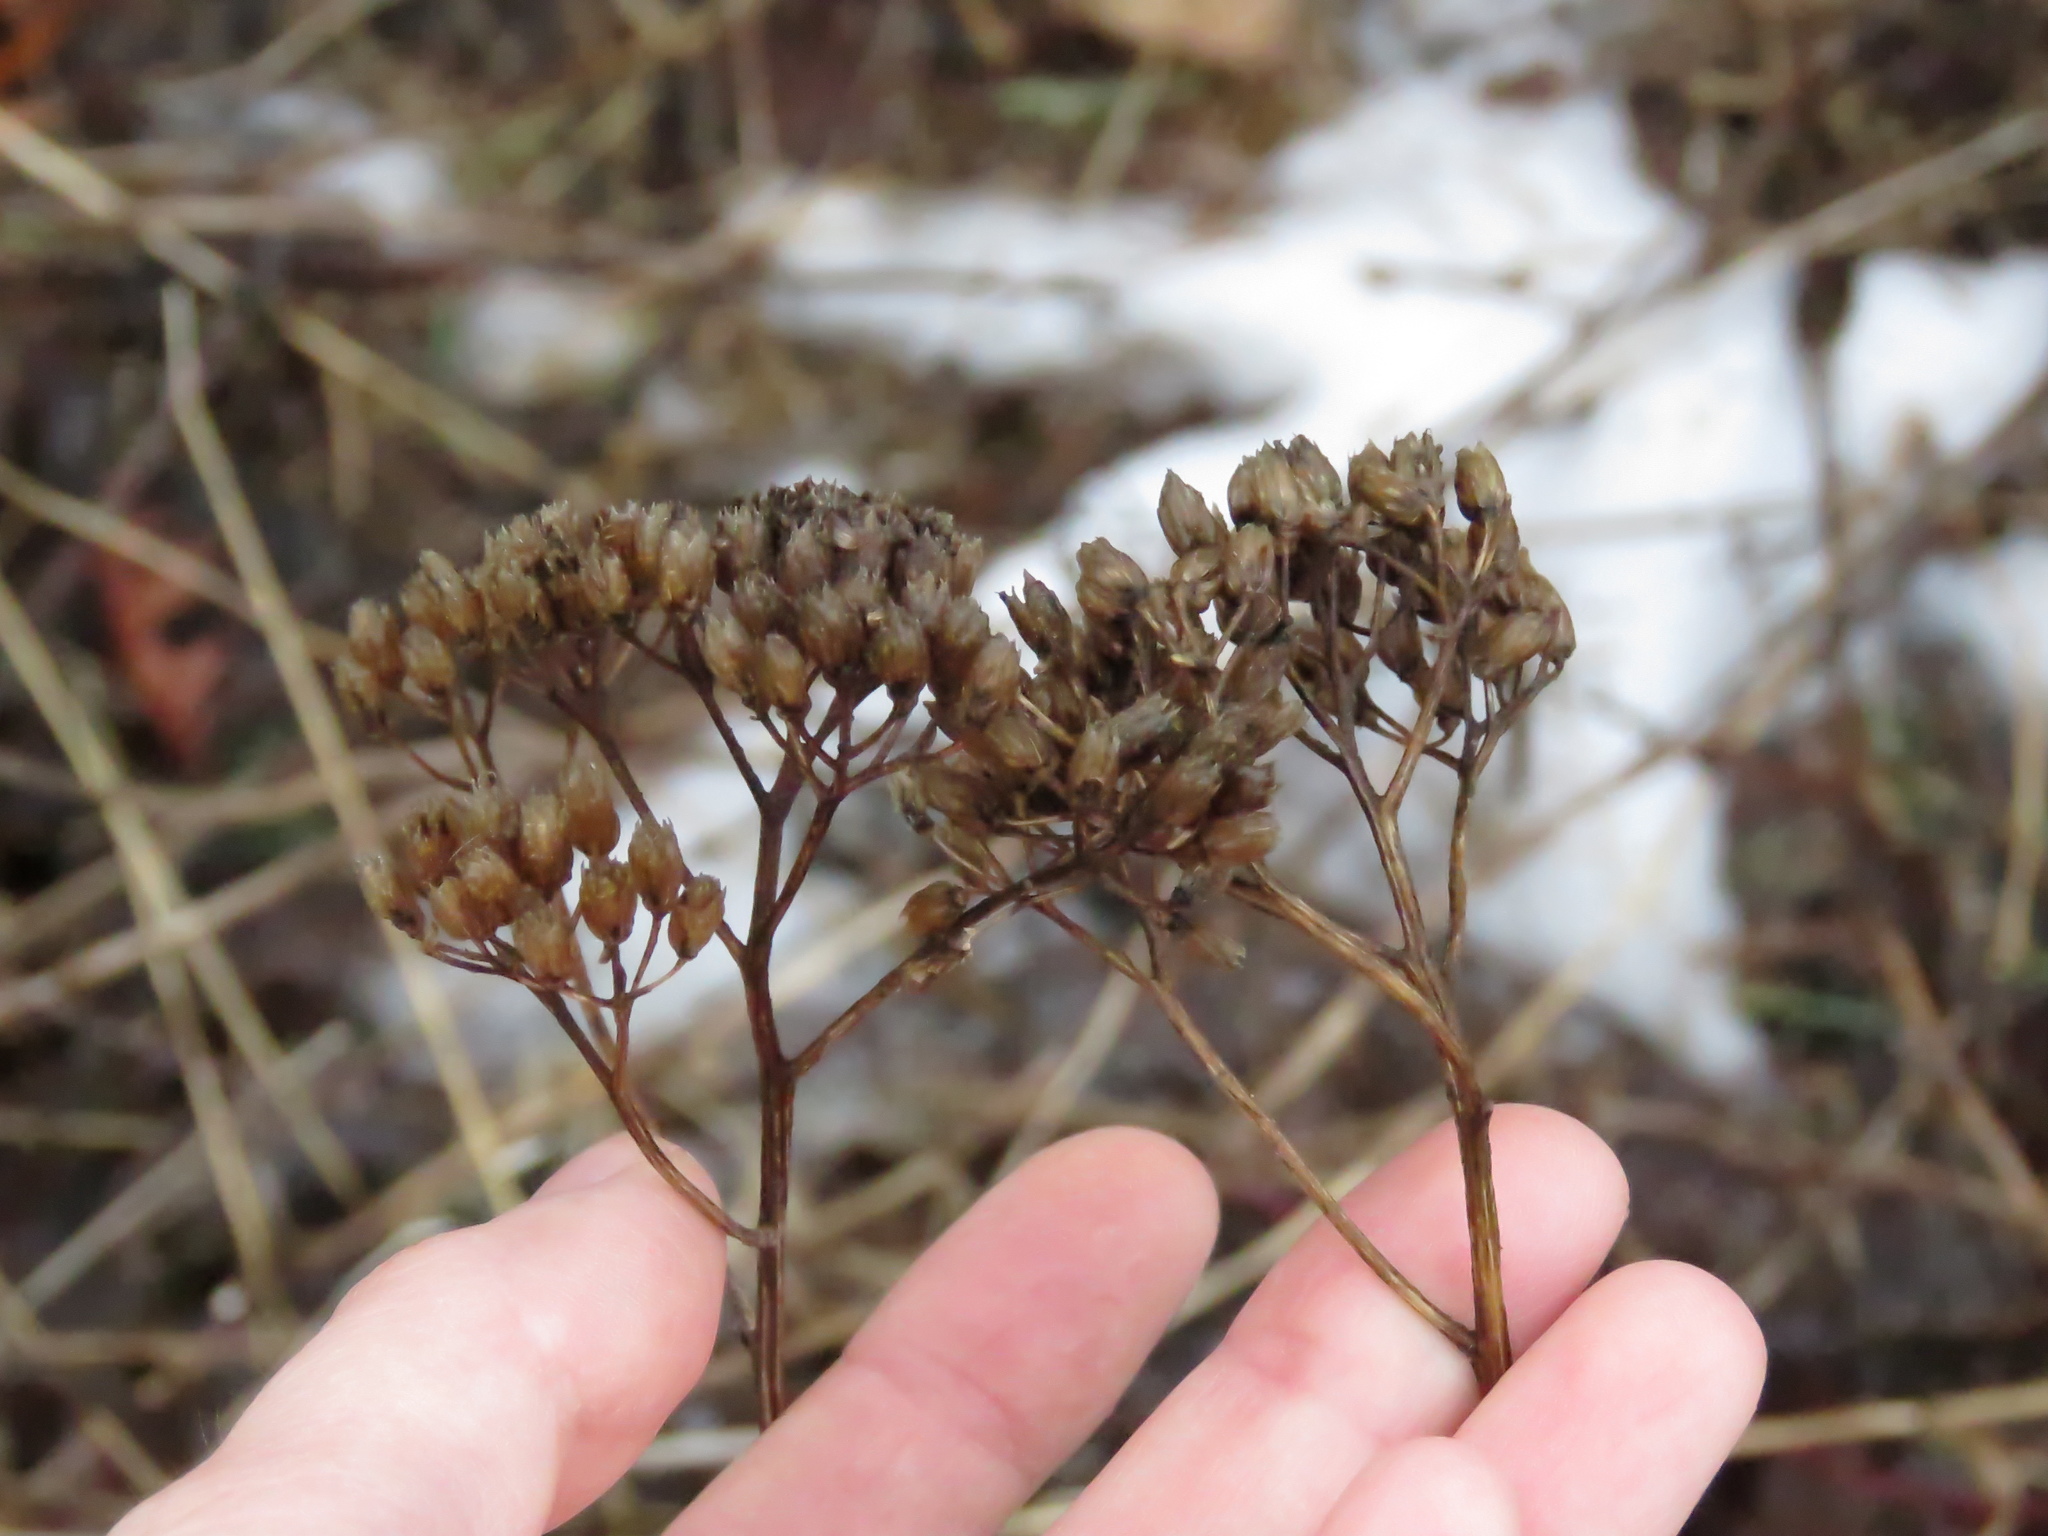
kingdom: Plantae
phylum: Tracheophyta
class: Magnoliopsida
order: Asterales
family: Asteraceae
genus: Achillea
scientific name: Achillea millefolium
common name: Yarrow
